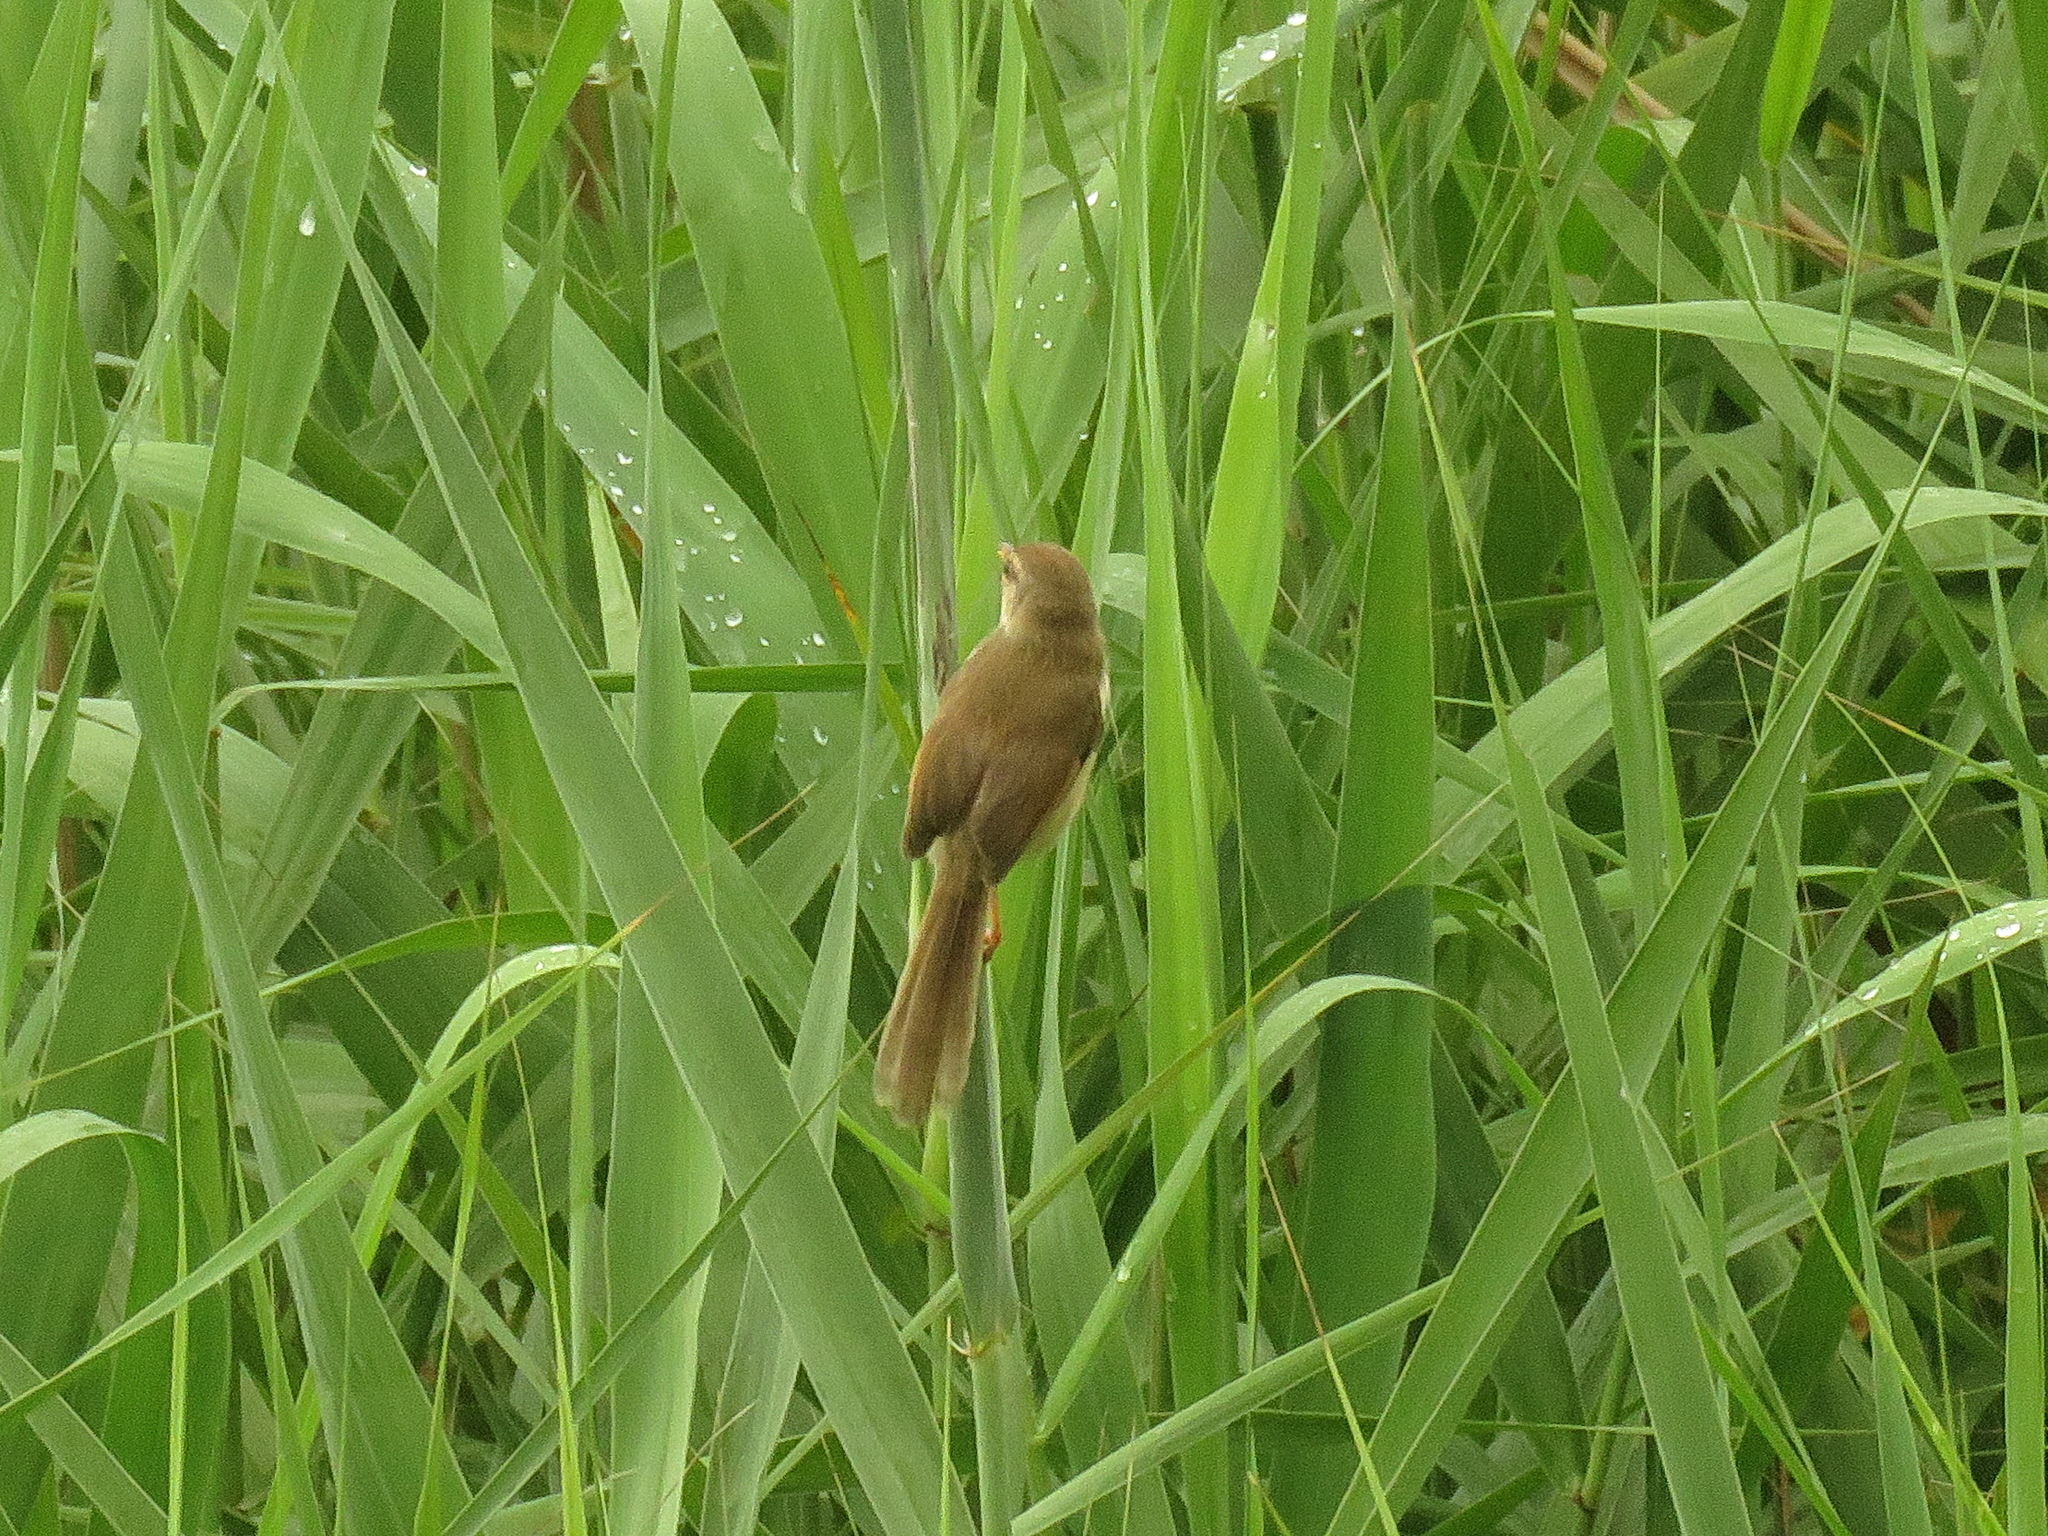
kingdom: Animalia
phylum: Chordata
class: Aves
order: Passeriformes
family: Cisticolidae
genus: Prinia
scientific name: Prinia inornata
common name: Plain prinia
